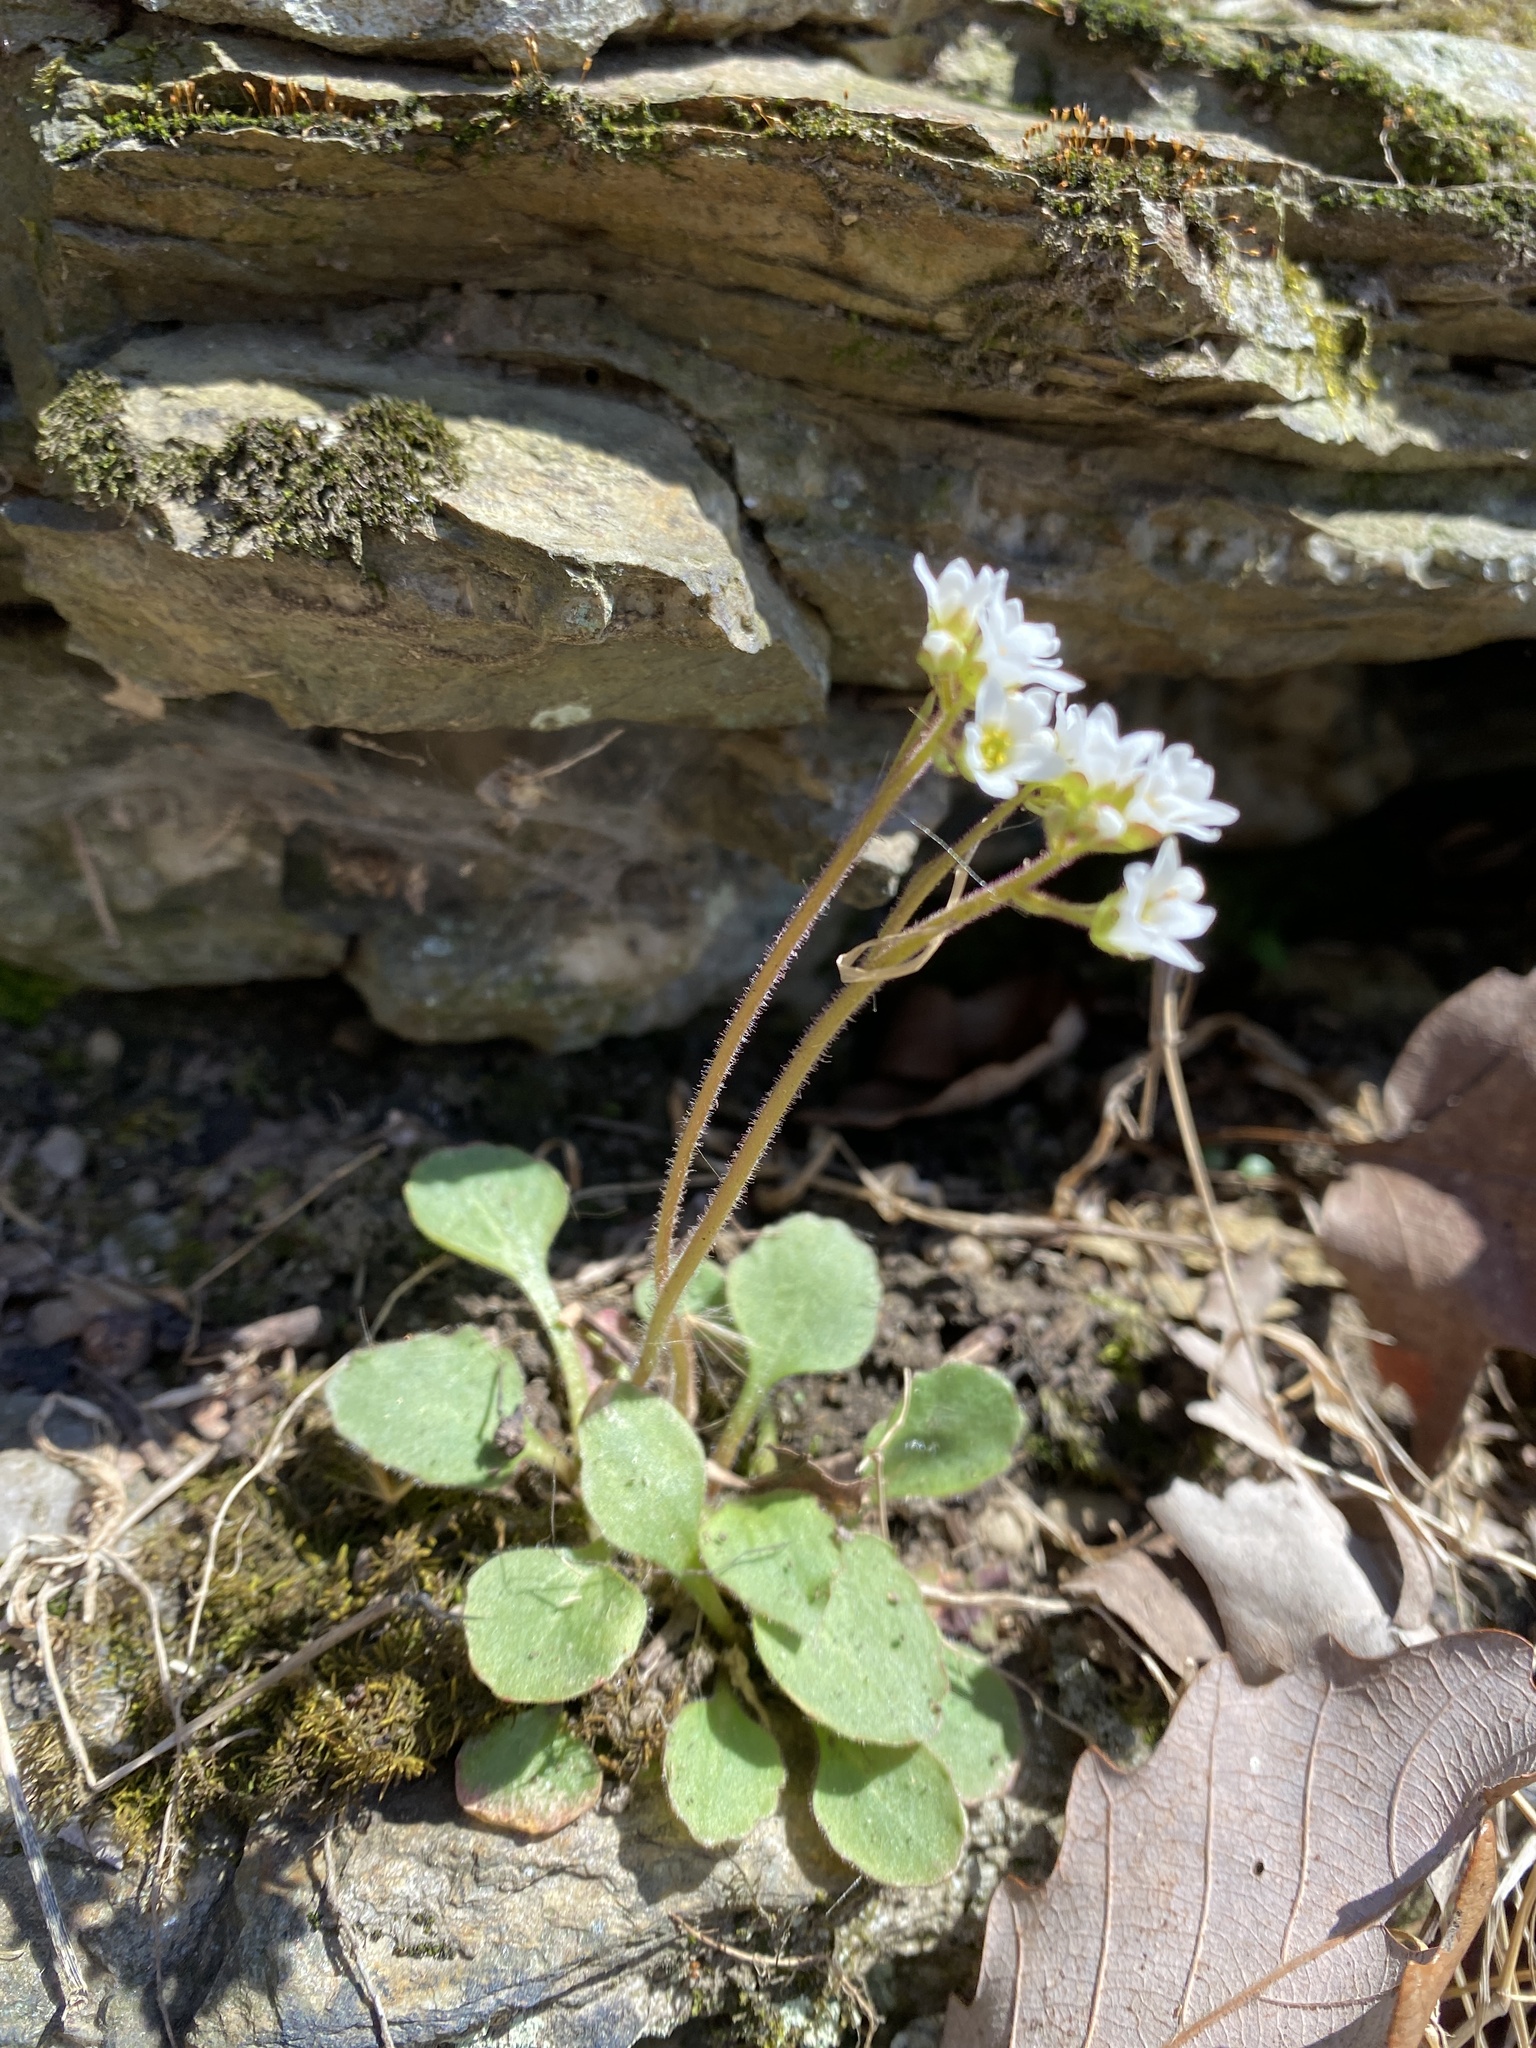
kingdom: Plantae
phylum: Tracheophyta
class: Magnoliopsida
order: Saxifragales
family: Saxifragaceae
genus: Micranthes
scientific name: Micranthes virginiensis
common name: Early saxifrage
